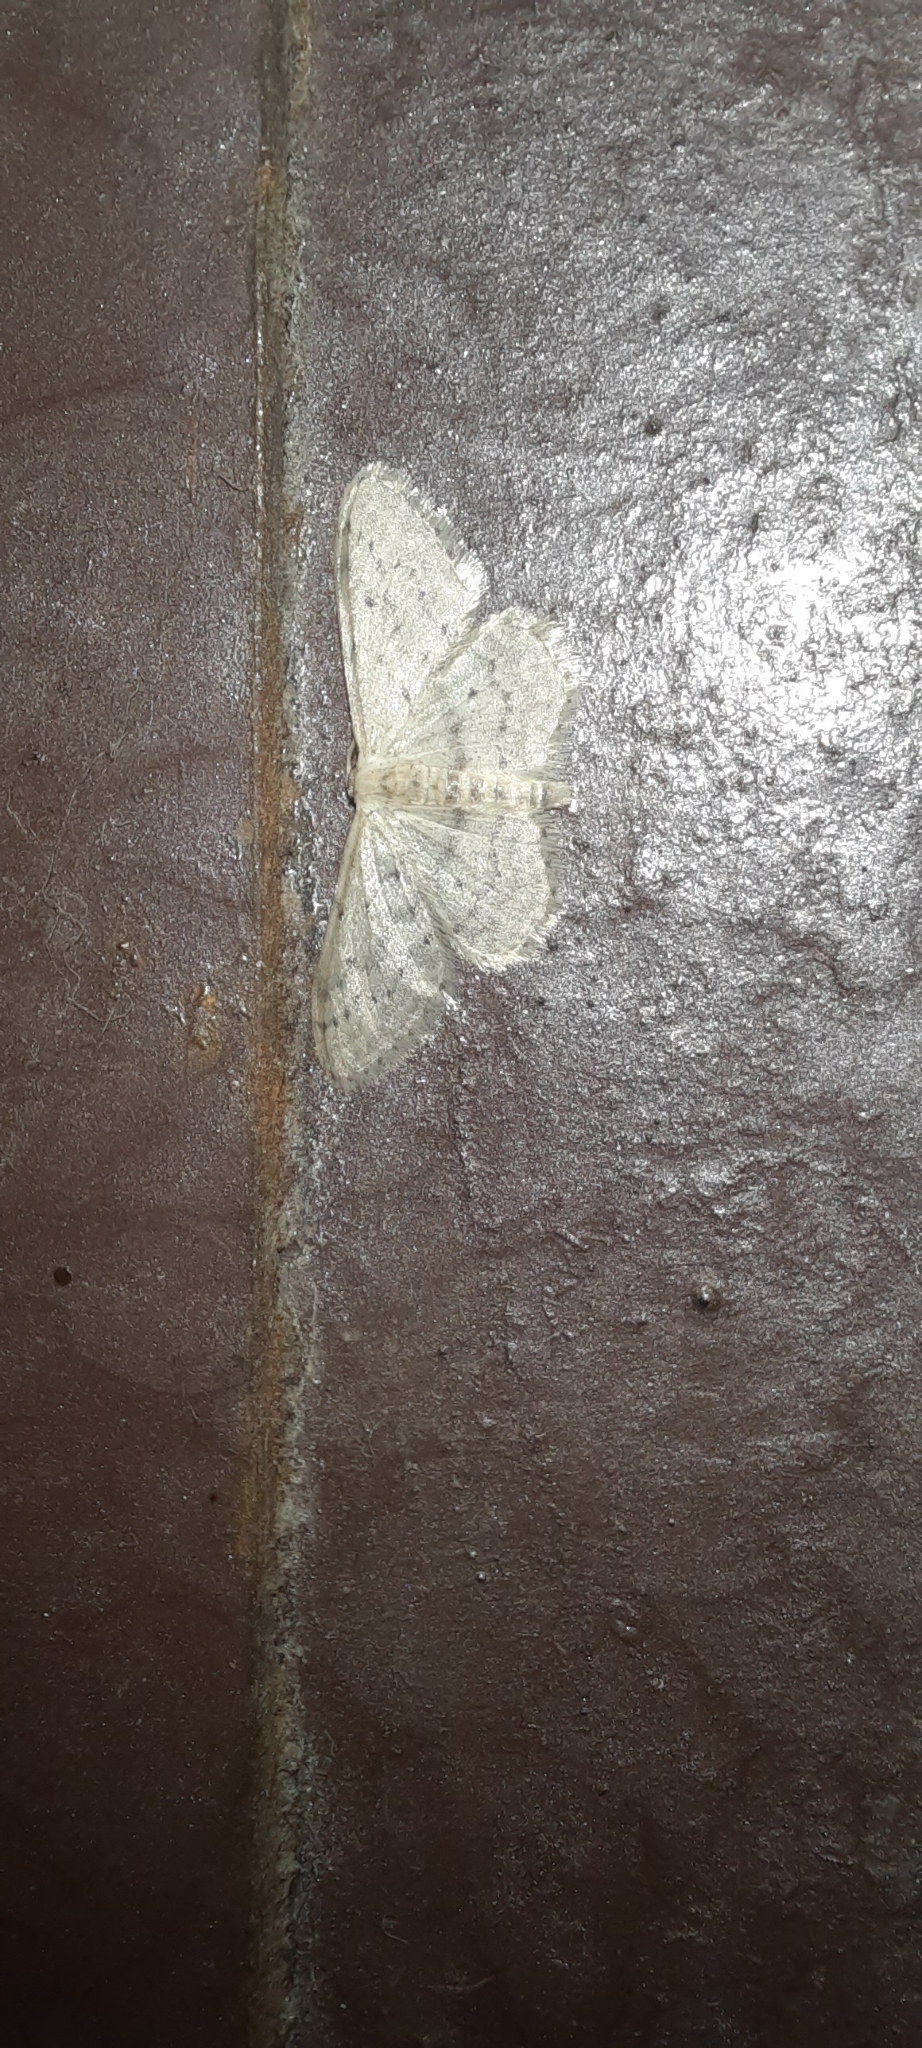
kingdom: Animalia
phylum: Arthropoda
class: Insecta
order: Lepidoptera
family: Geometridae
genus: Idaea
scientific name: Idaea seriata
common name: Small dusty wave
